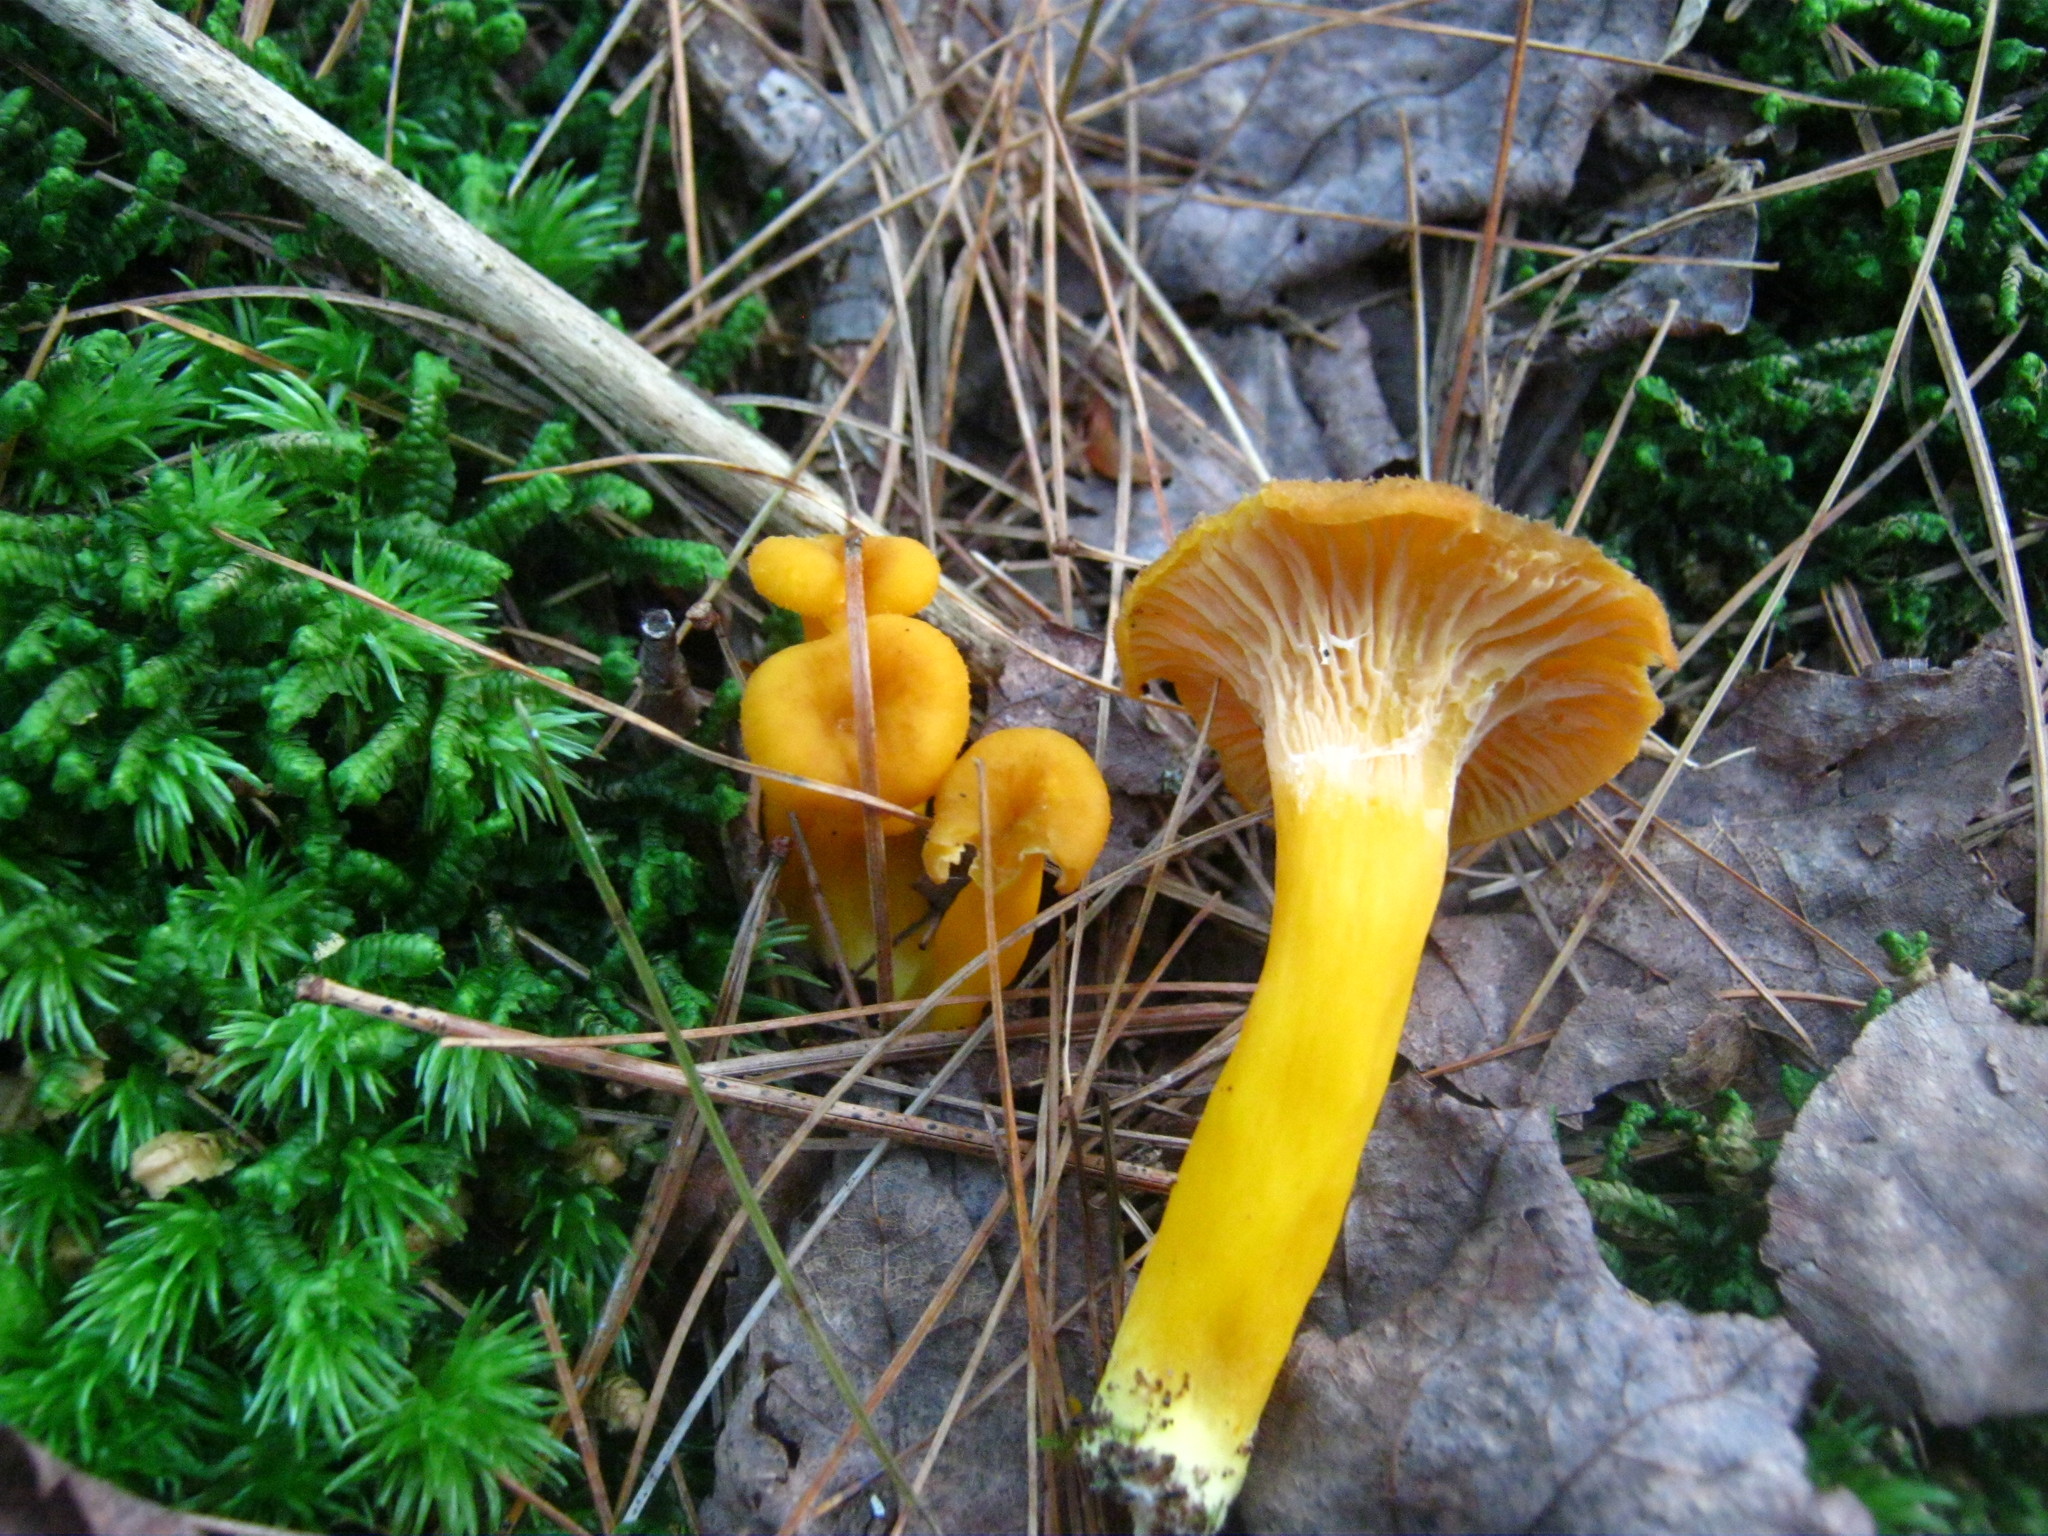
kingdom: Fungi
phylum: Basidiomycota
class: Agaricomycetes
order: Cantharellales
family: Hydnaceae
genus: Craterellus
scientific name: Craterellus ignicolor
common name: Flame chanterelle
